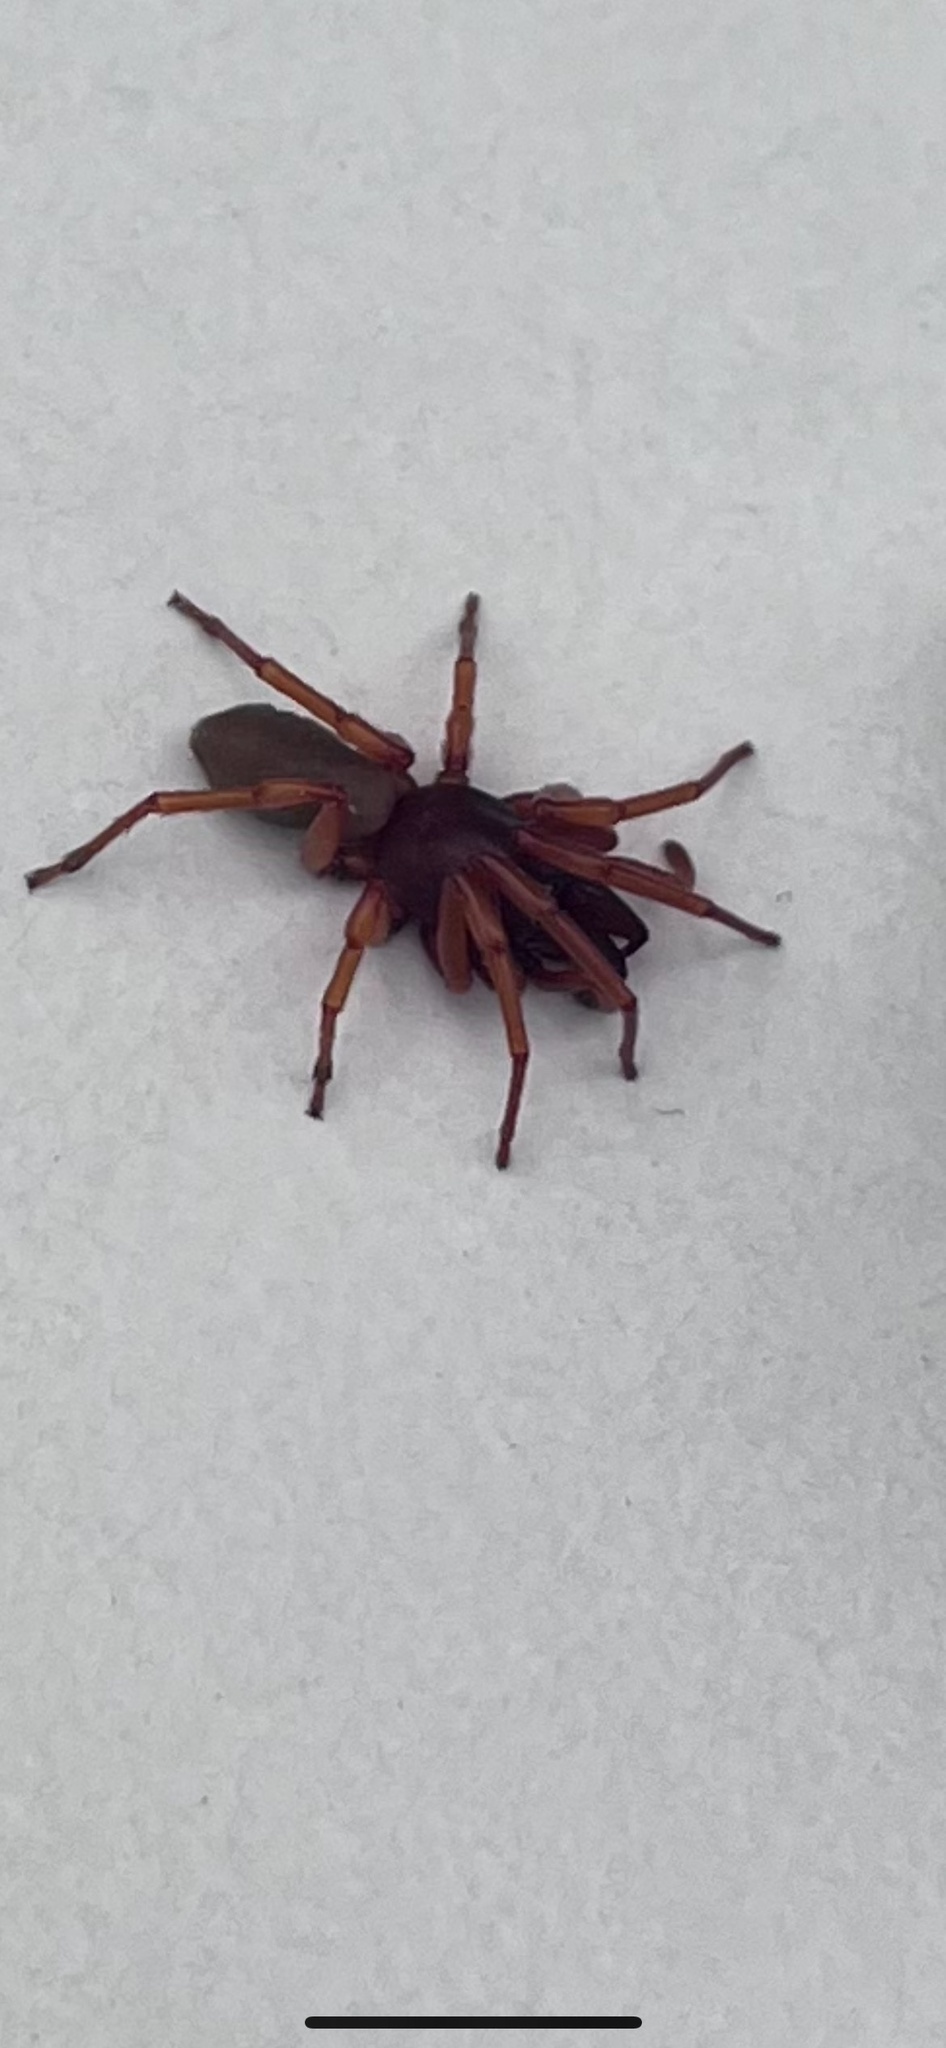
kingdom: Animalia
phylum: Arthropoda
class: Arachnida
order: Araneae
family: Dysderidae
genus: Dysdera
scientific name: Dysdera crocata
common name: Woodlouse spider
